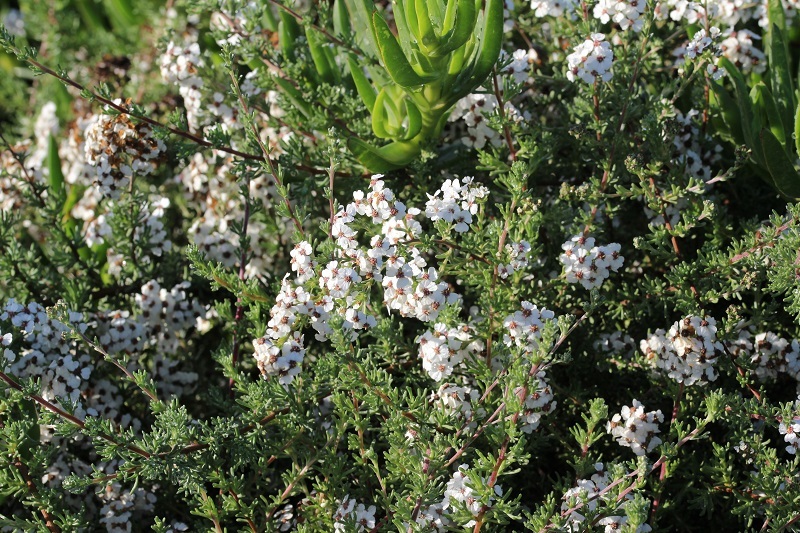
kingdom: Plantae
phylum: Tracheophyta
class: Magnoliopsida
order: Asterales
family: Asteraceae
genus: Eriocephalus
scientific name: Eriocephalus africanus
